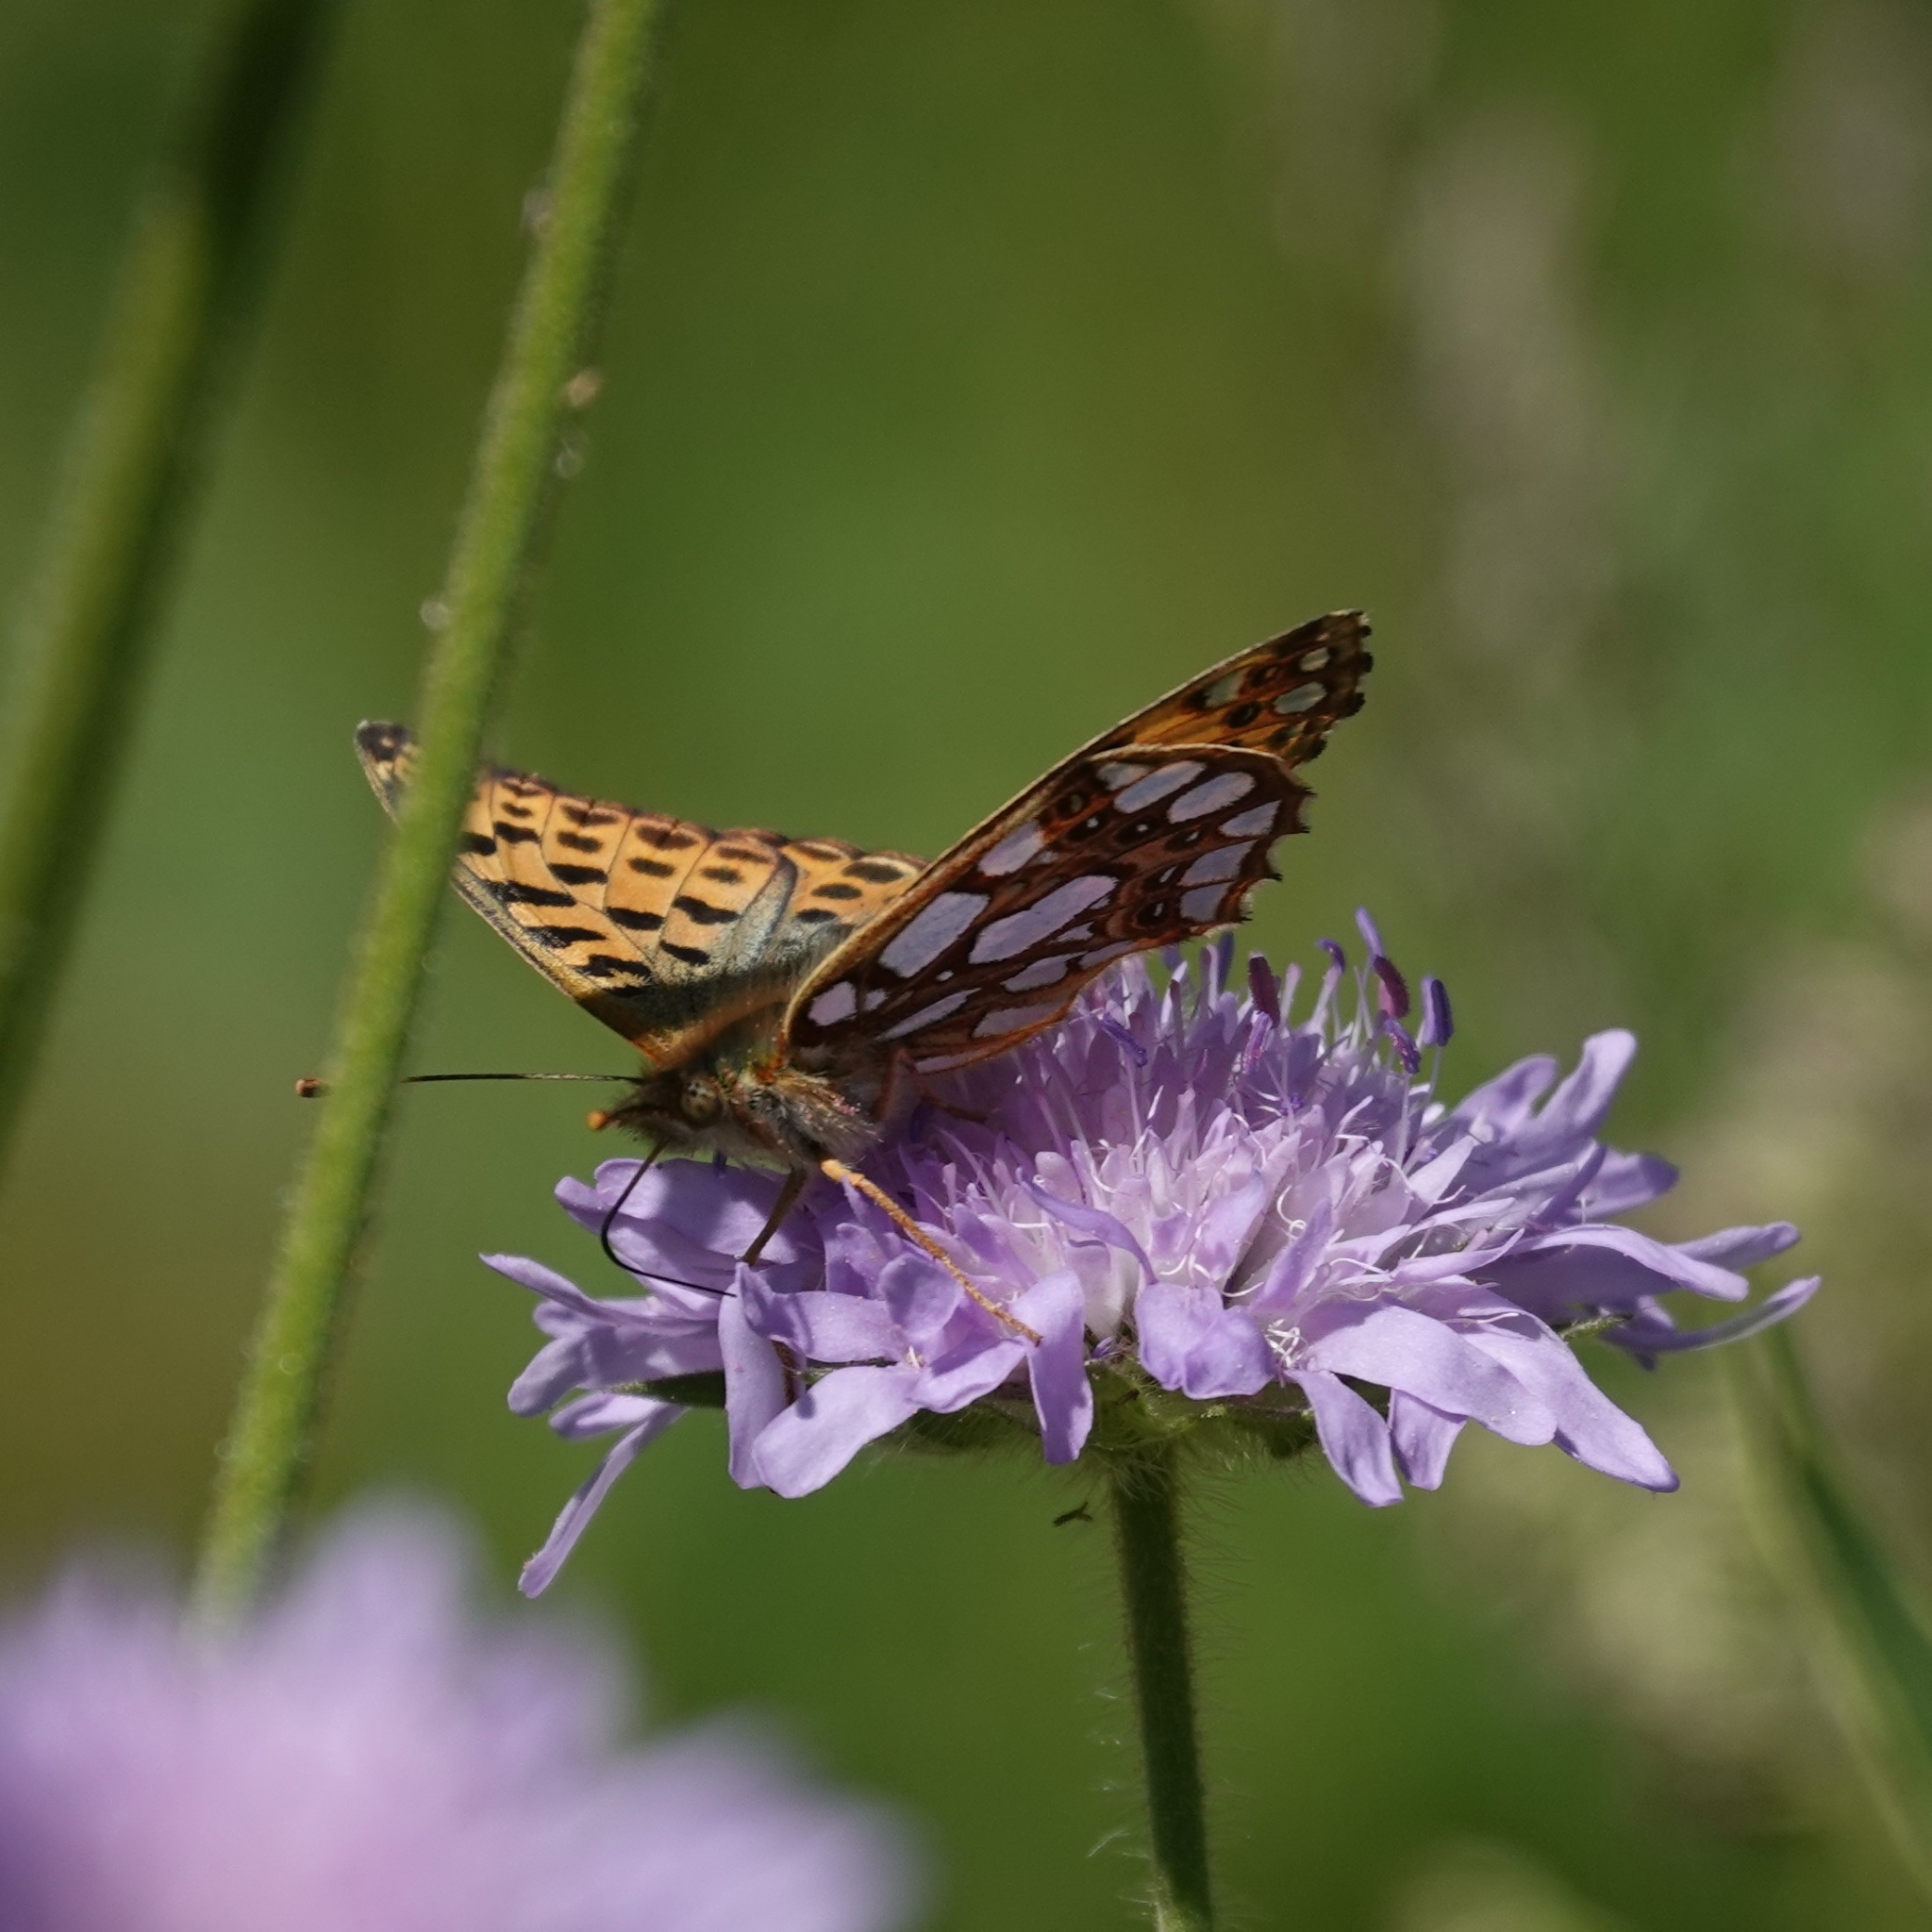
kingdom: Animalia
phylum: Arthropoda
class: Insecta
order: Lepidoptera
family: Nymphalidae
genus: Issoria
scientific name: Issoria lathonia
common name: Queen of spain fritillary
